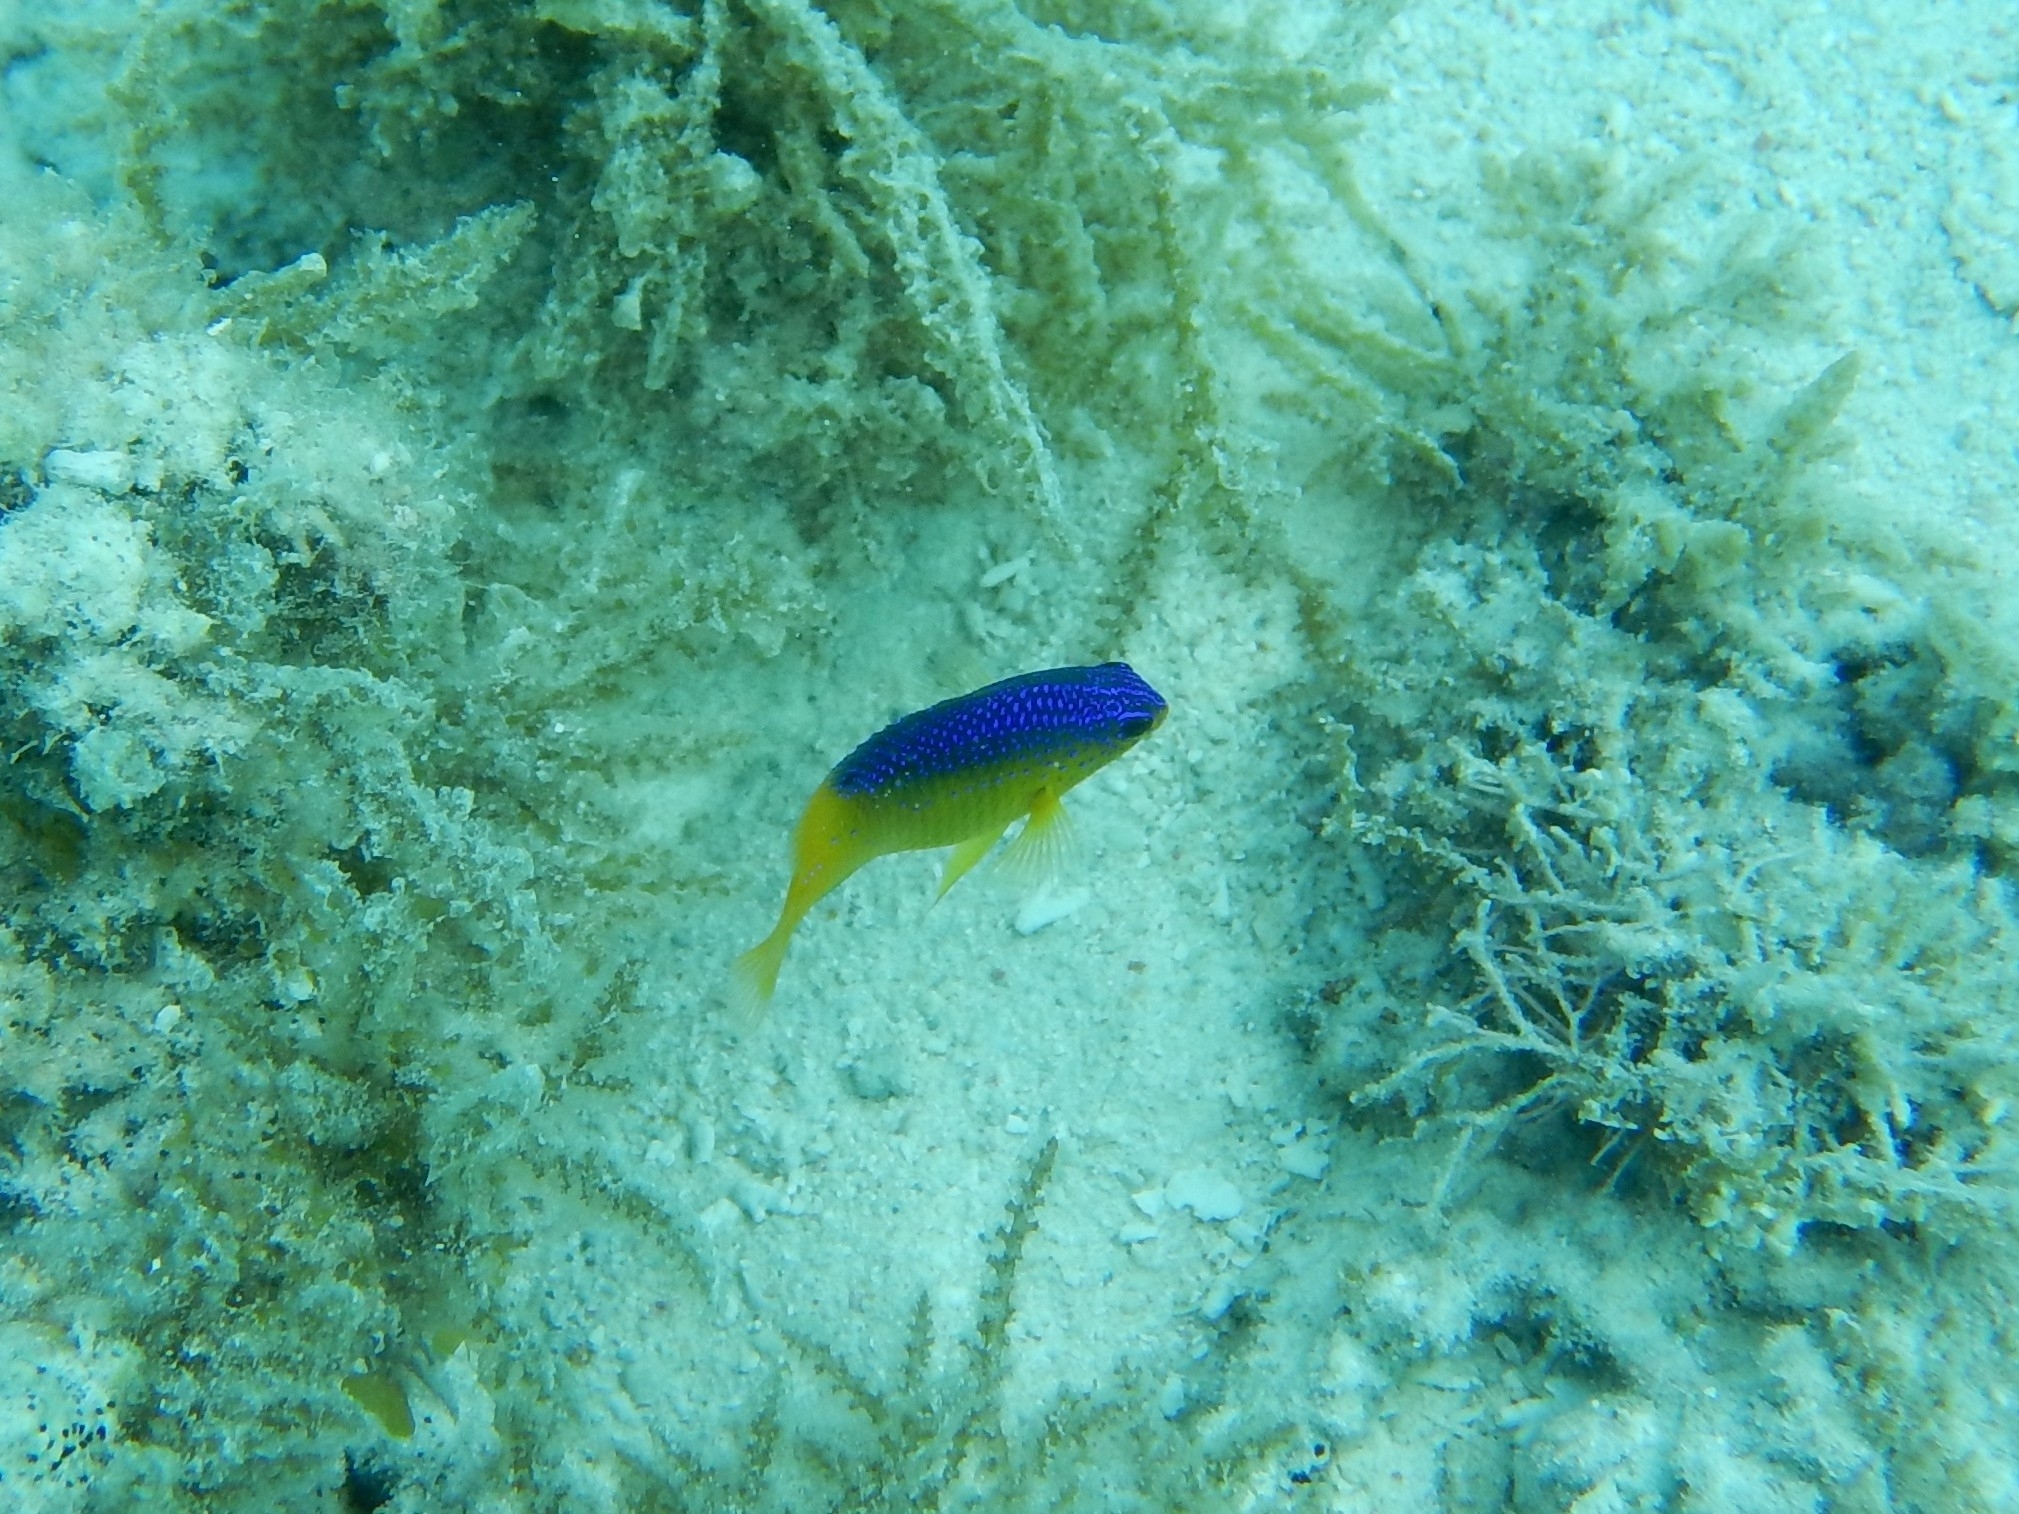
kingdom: Animalia
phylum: Chordata
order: Perciformes
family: Pomacentridae
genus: Stegastes
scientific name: Stegastes leucostictus
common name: Beaugregory
